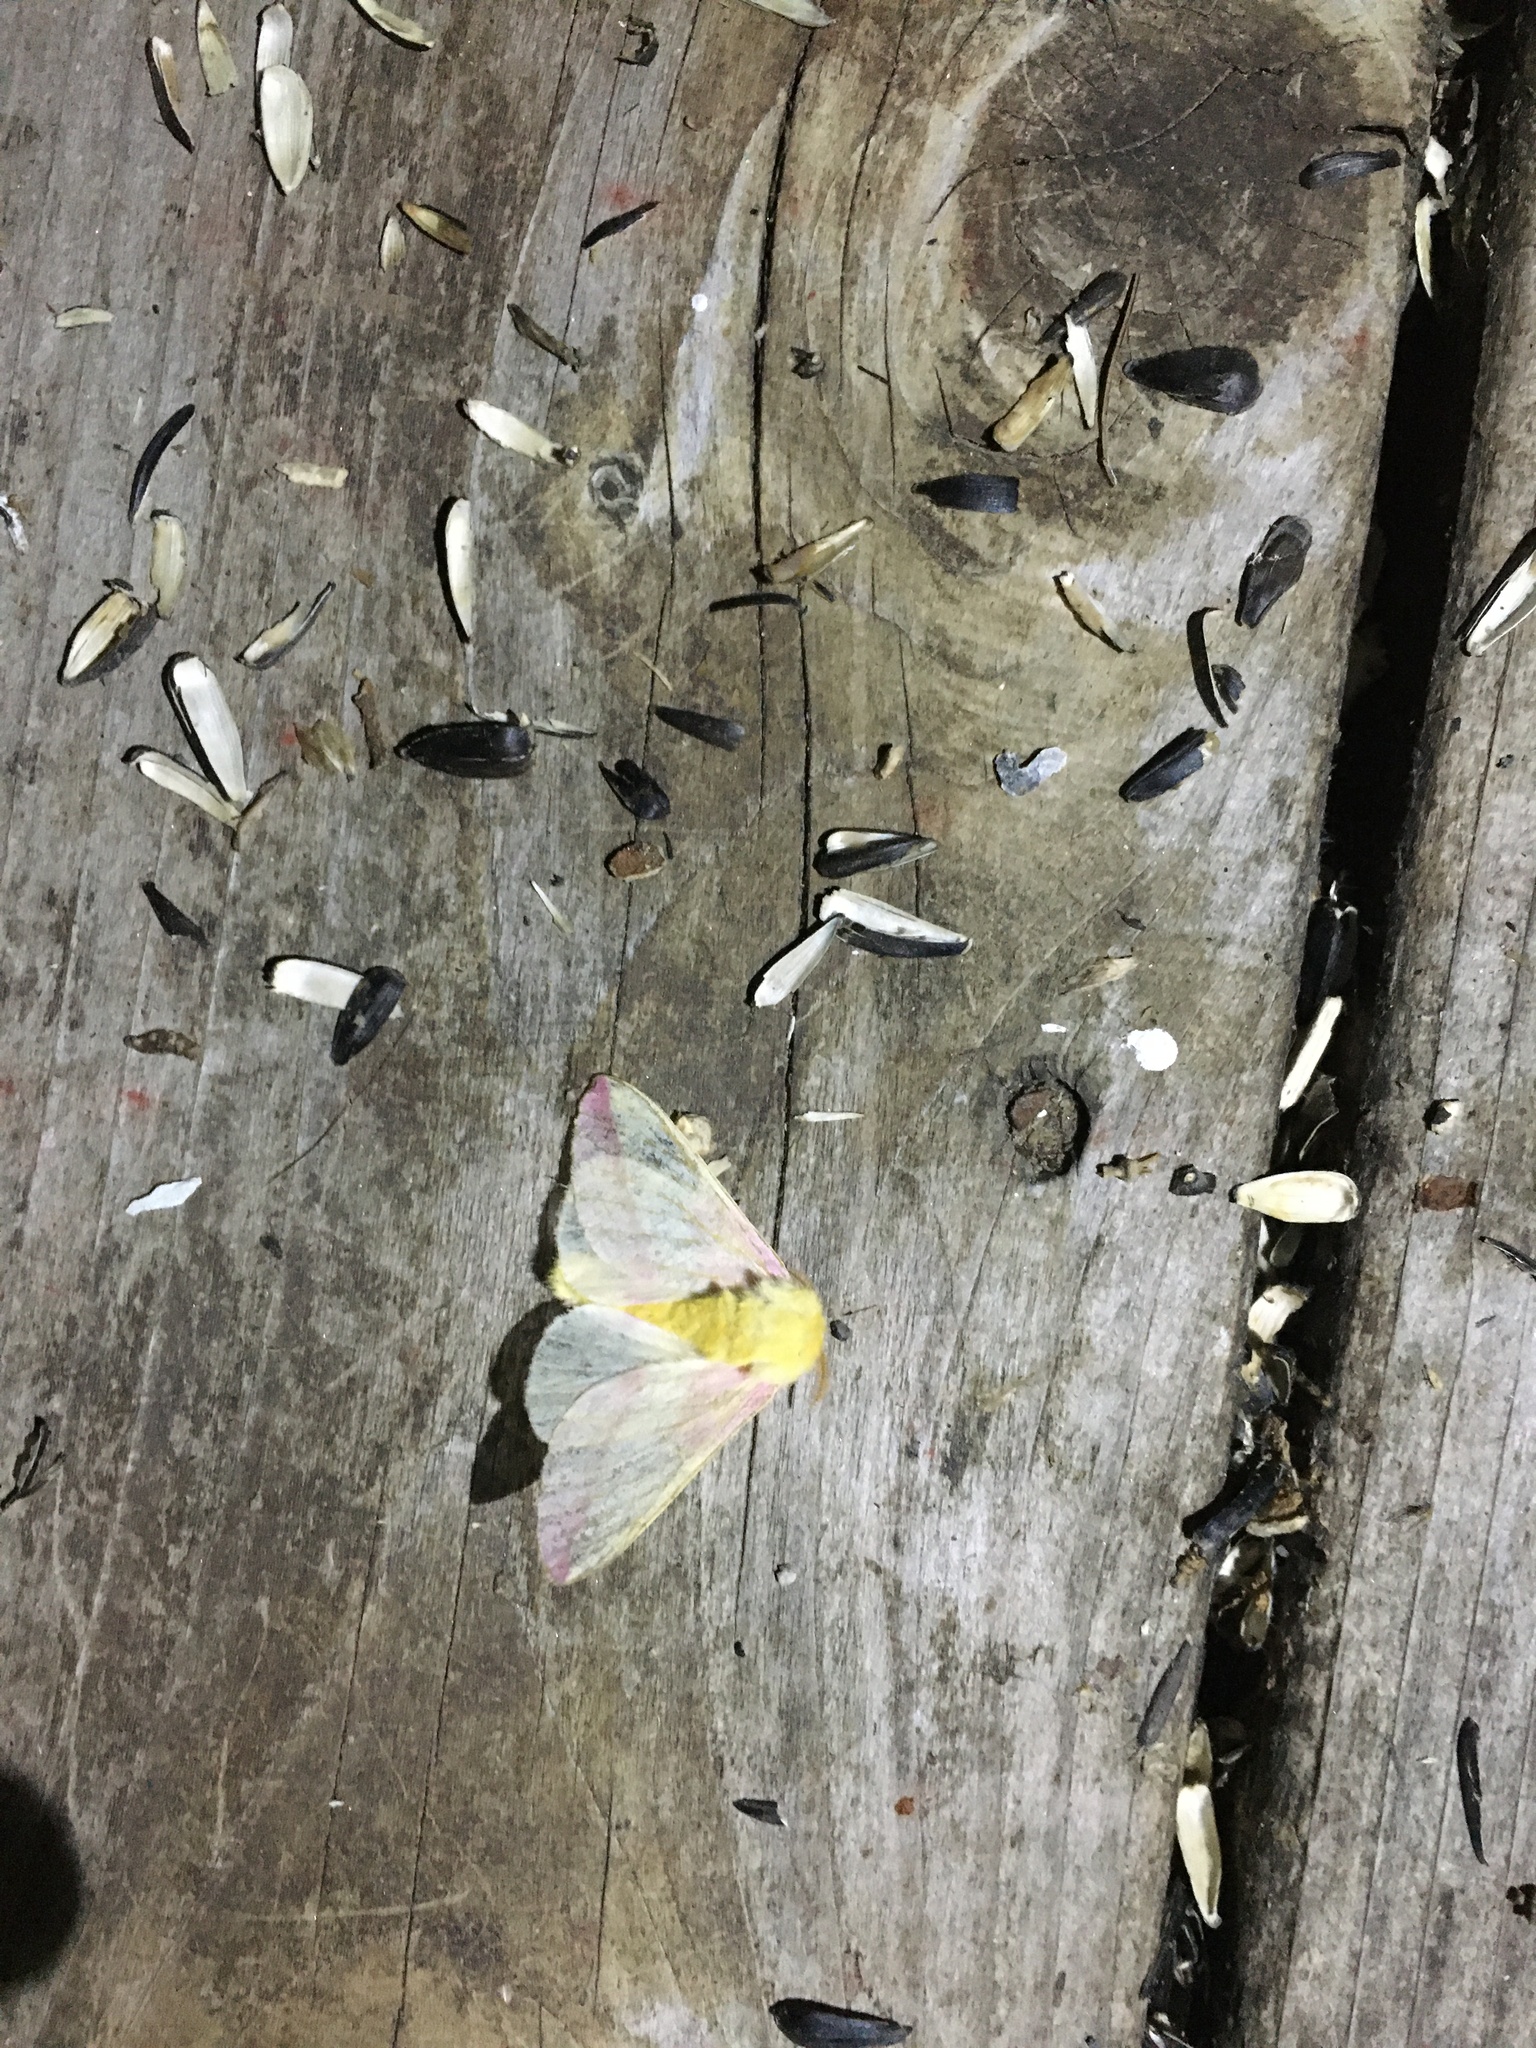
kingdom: Animalia
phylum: Arthropoda
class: Insecta
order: Lepidoptera
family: Saturniidae
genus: Dryocampa
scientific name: Dryocampa rubicunda
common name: Rosy maple moth
